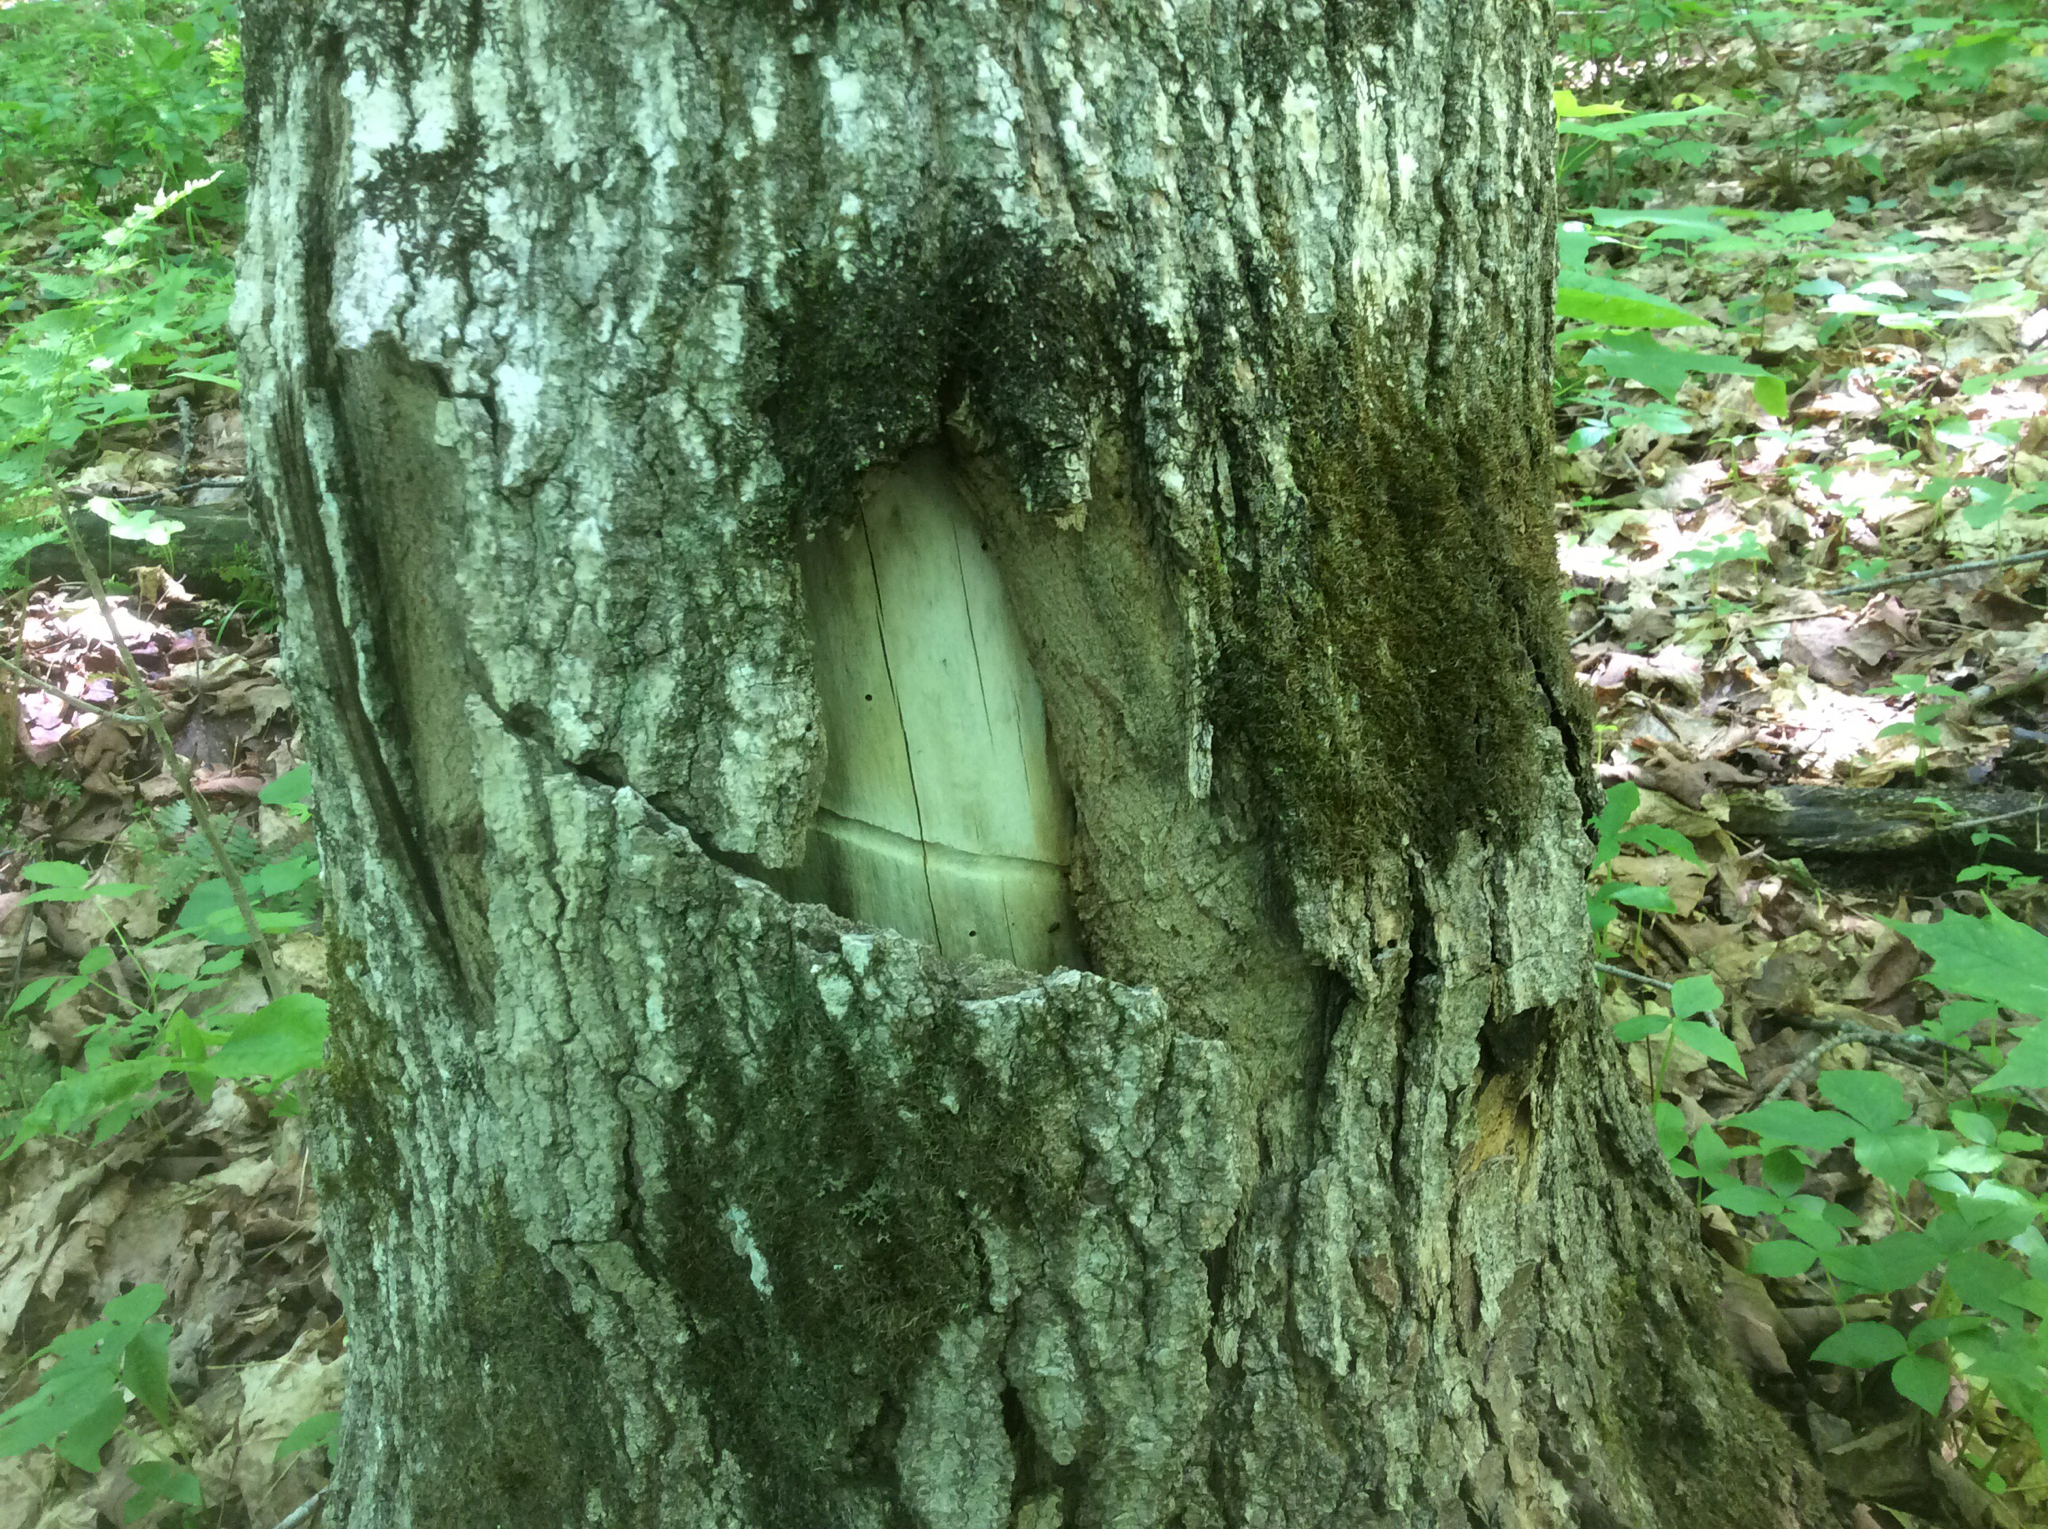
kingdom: Animalia
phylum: Arthropoda
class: Insecta
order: Coleoptera
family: Cerambycidae
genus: Glycobius
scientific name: Glycobius speciosus
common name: Sugar maple borer
